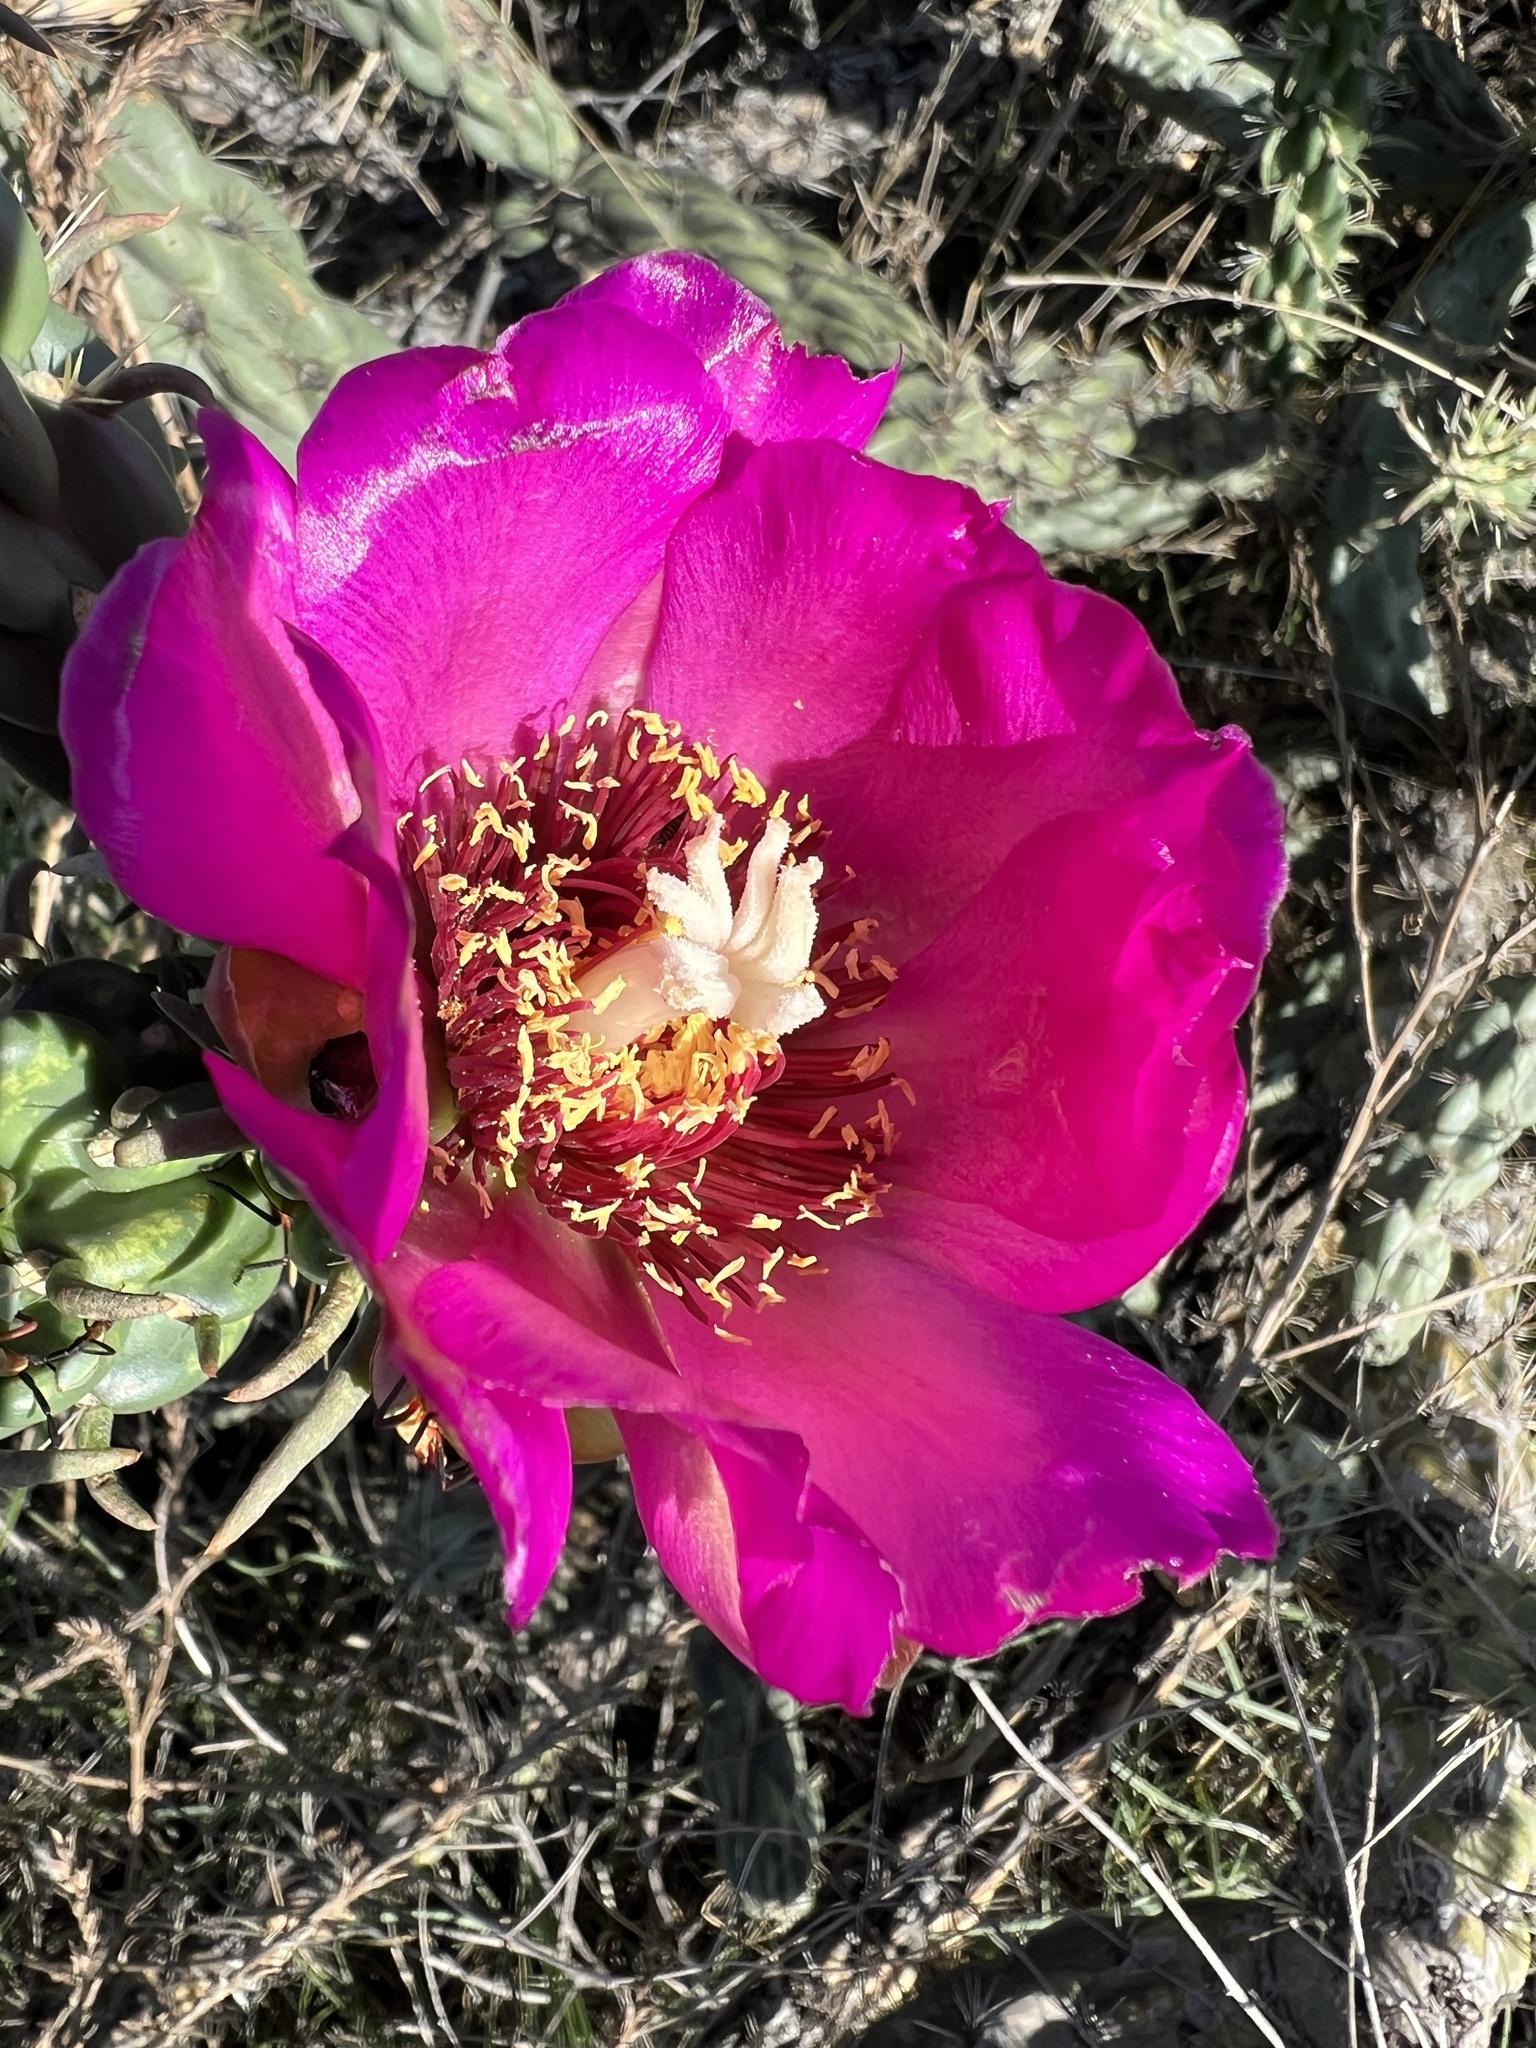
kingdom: Plantae
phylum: Tracheophyta
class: Magnoliopsida
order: Caryophyllales
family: Cactaceae
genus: Cylindropuntia
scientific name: Cylindropuntia imbricata
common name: Candelabrum cactus
